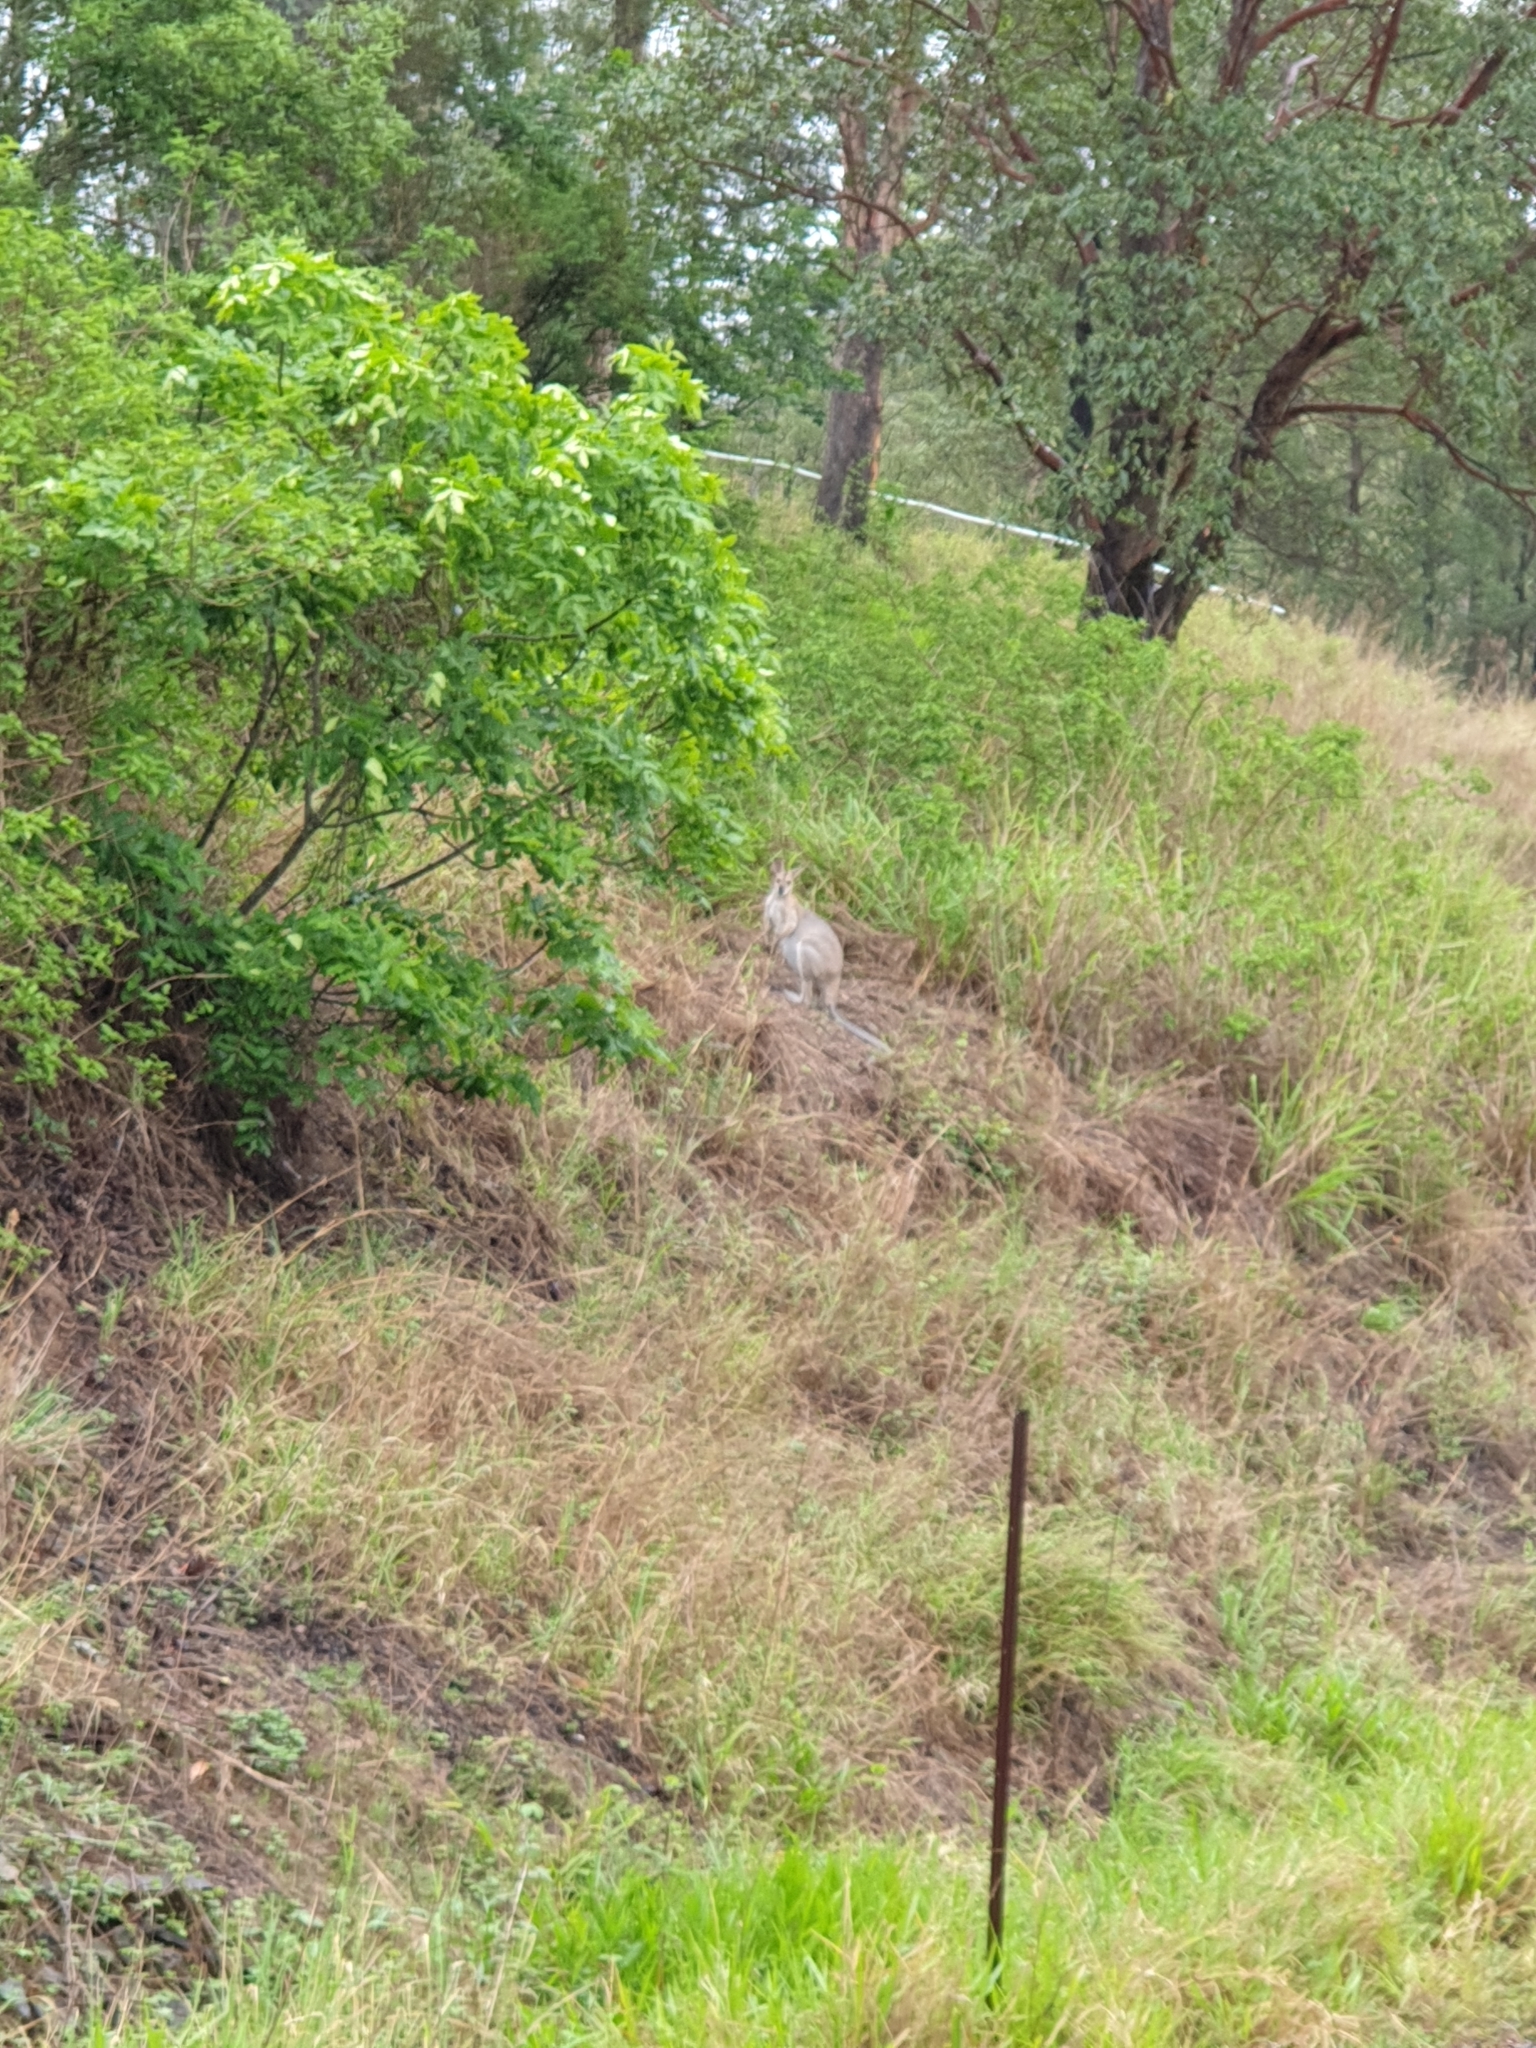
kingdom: Animalia
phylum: Chordata
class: Mammalia
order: Diprotodontia
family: Macropodidae
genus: Notamacropus
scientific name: Notamacropus rufogriseus
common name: Red-necked wallaby
